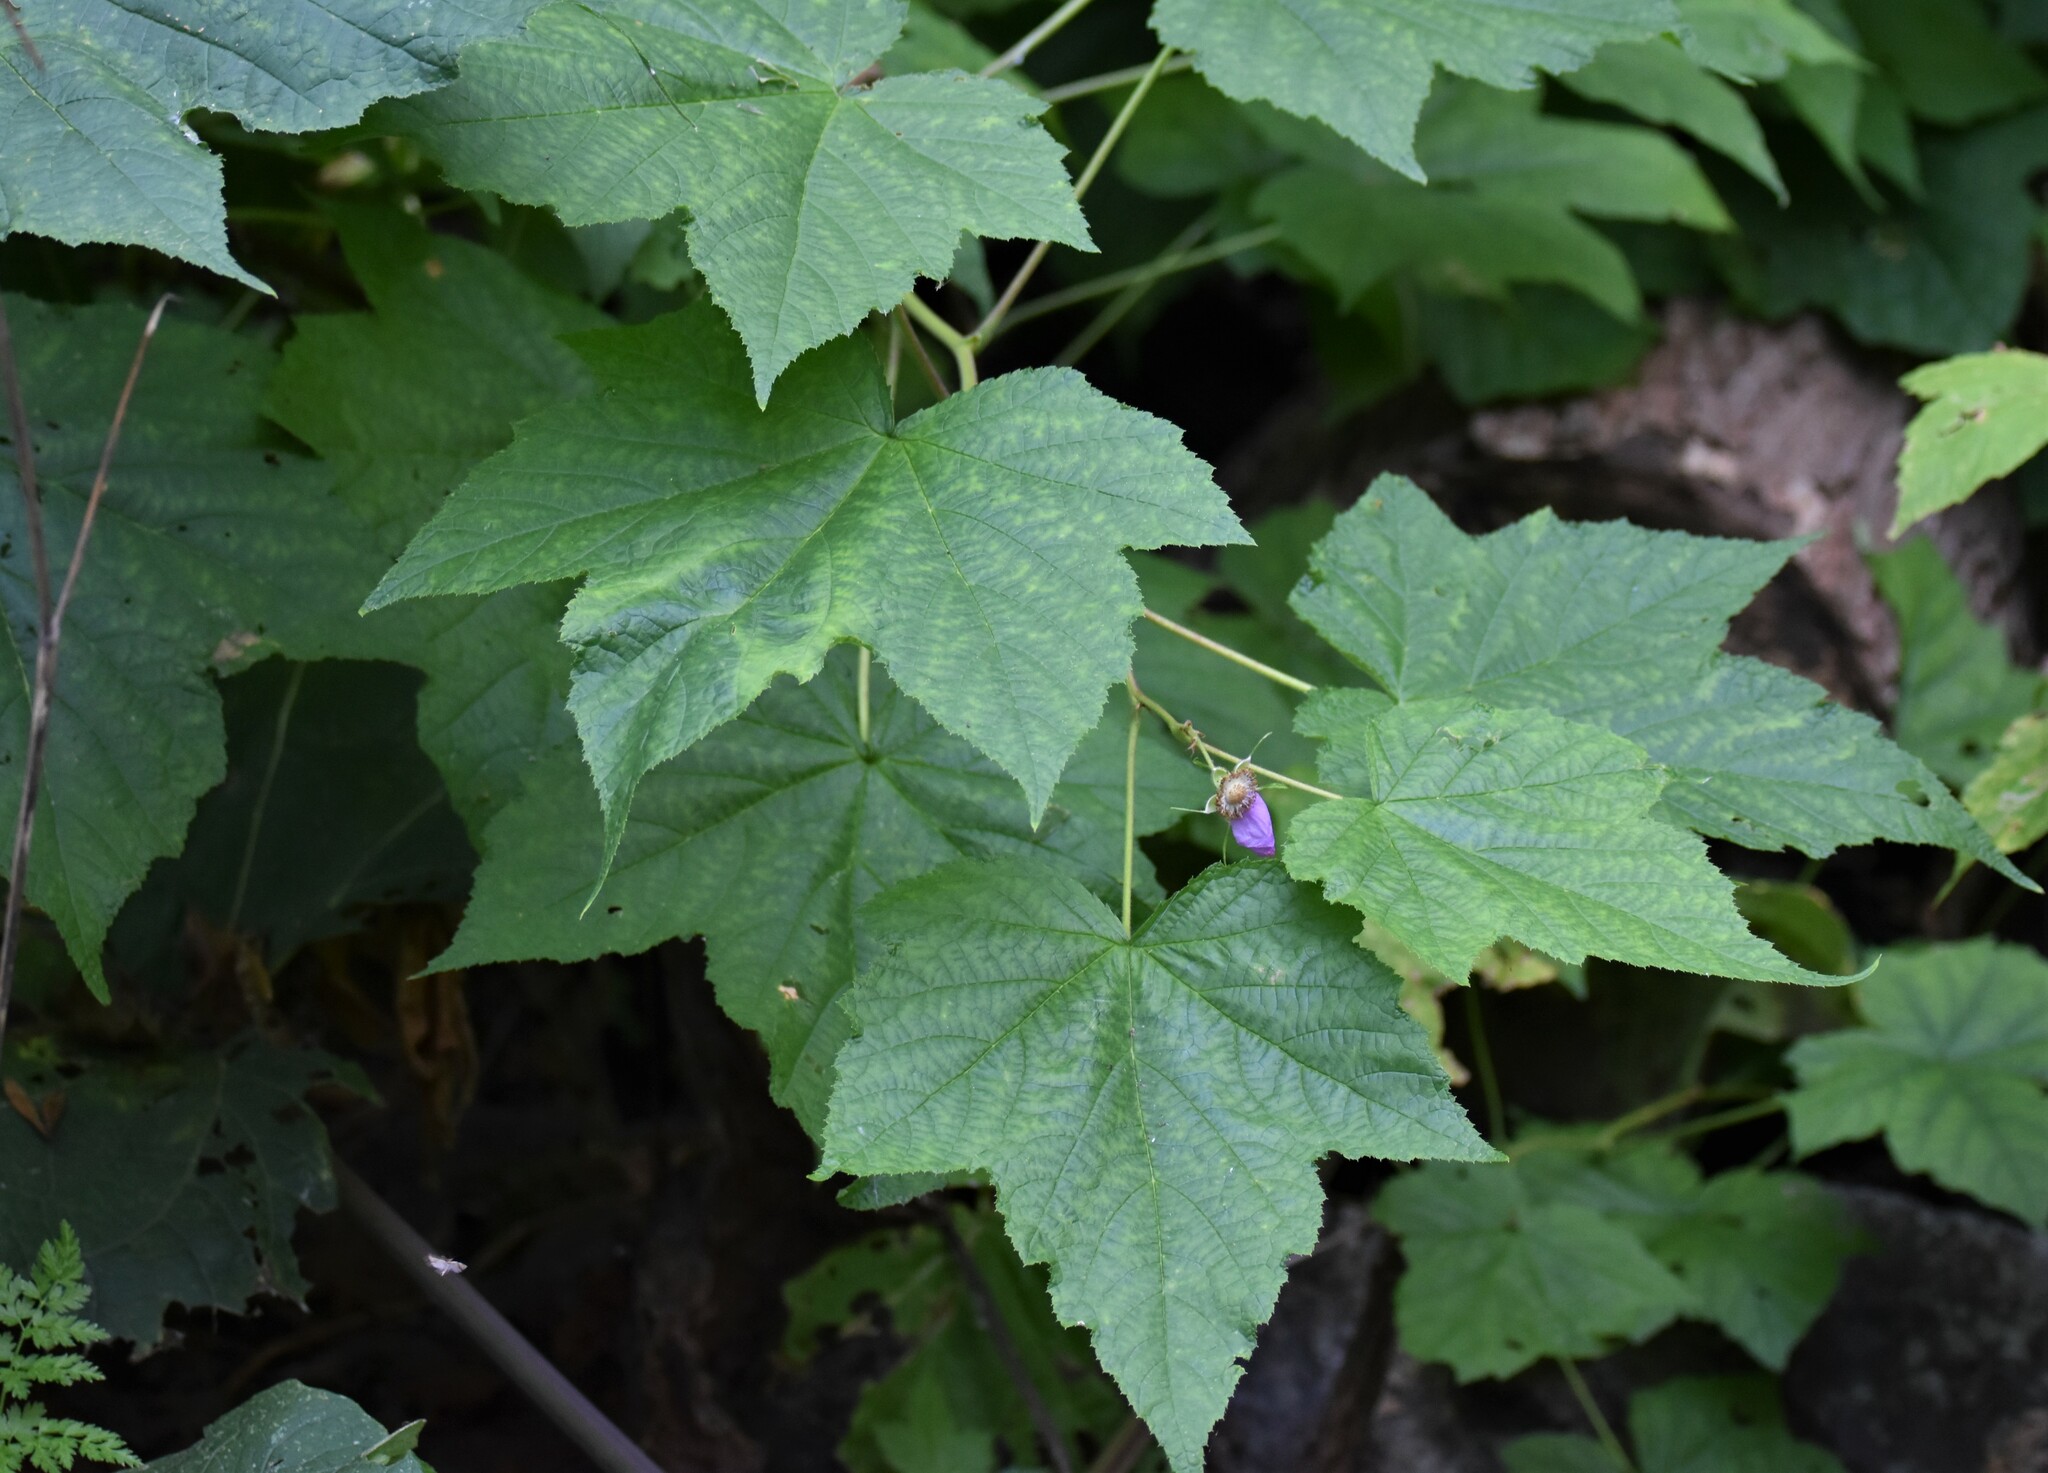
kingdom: Plantae
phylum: Tracheophyta
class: Magnoliopsida
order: Rosales
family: Rosaceae
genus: Rubus
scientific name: Rubus odoratus
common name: Purple-flowered raspberry
